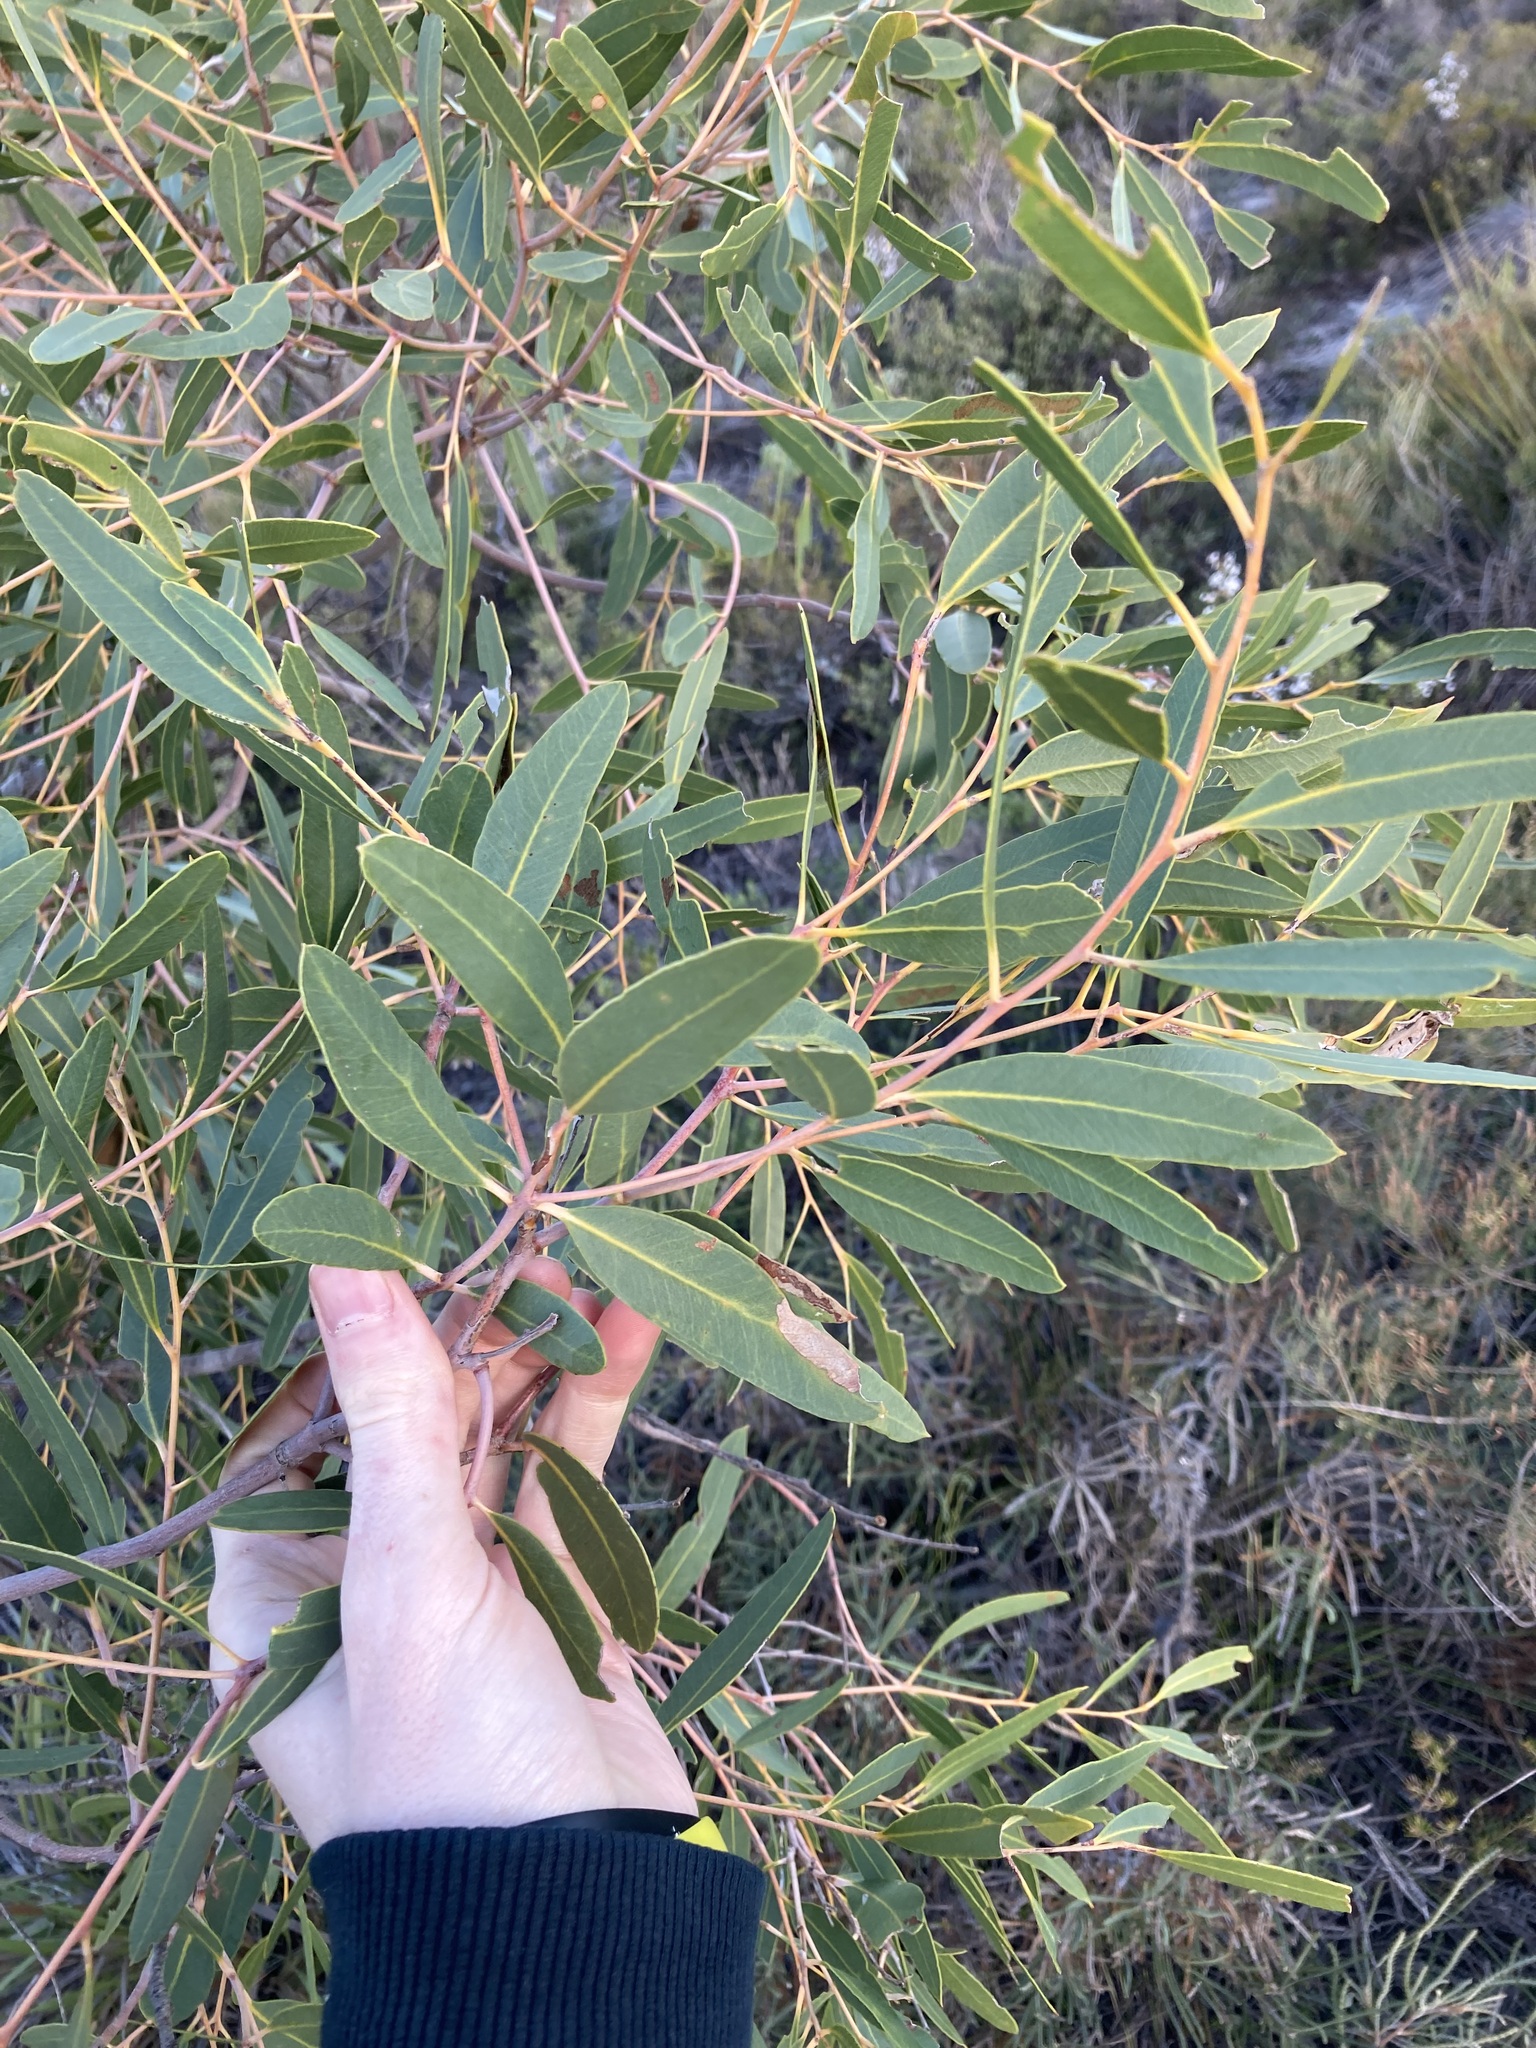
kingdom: Plantae
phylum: Tracheophyta
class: Magnoliopsida
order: Myrtales
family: Myrtaceae
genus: Eucalyptus
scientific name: Eucalyptus todtiana
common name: Coastal blackbutt
